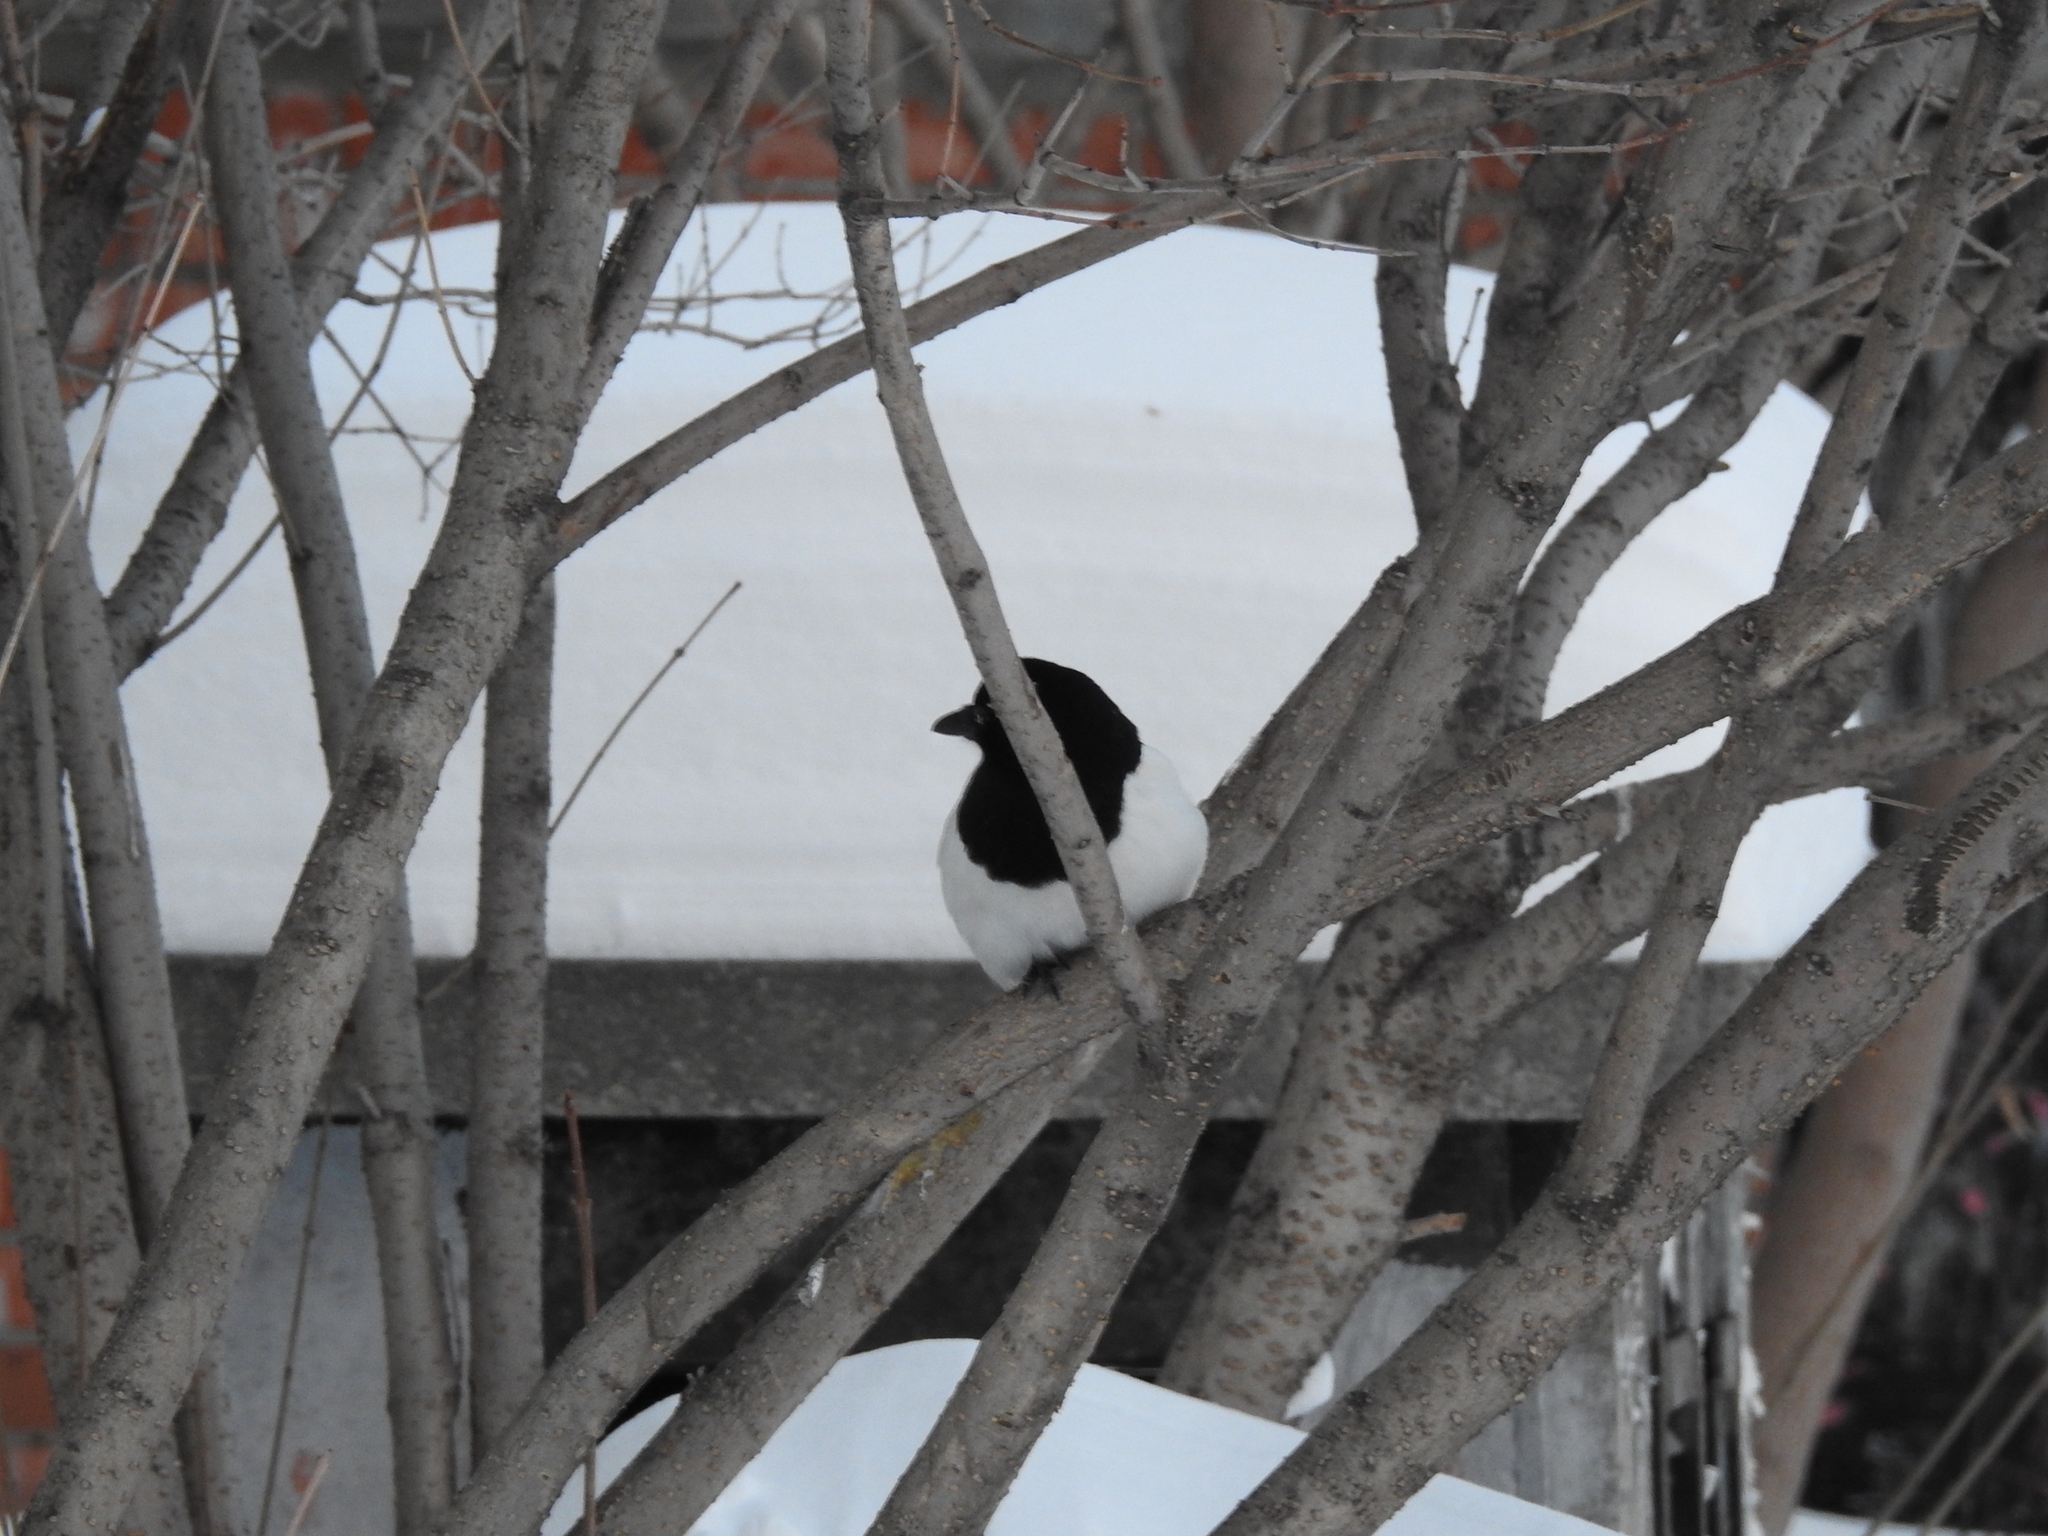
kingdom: Animalia
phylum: Chordata
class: Aves
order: Passeriformes
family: Corvidae
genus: Pica
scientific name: Pica pica
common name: Eurasian magpie
